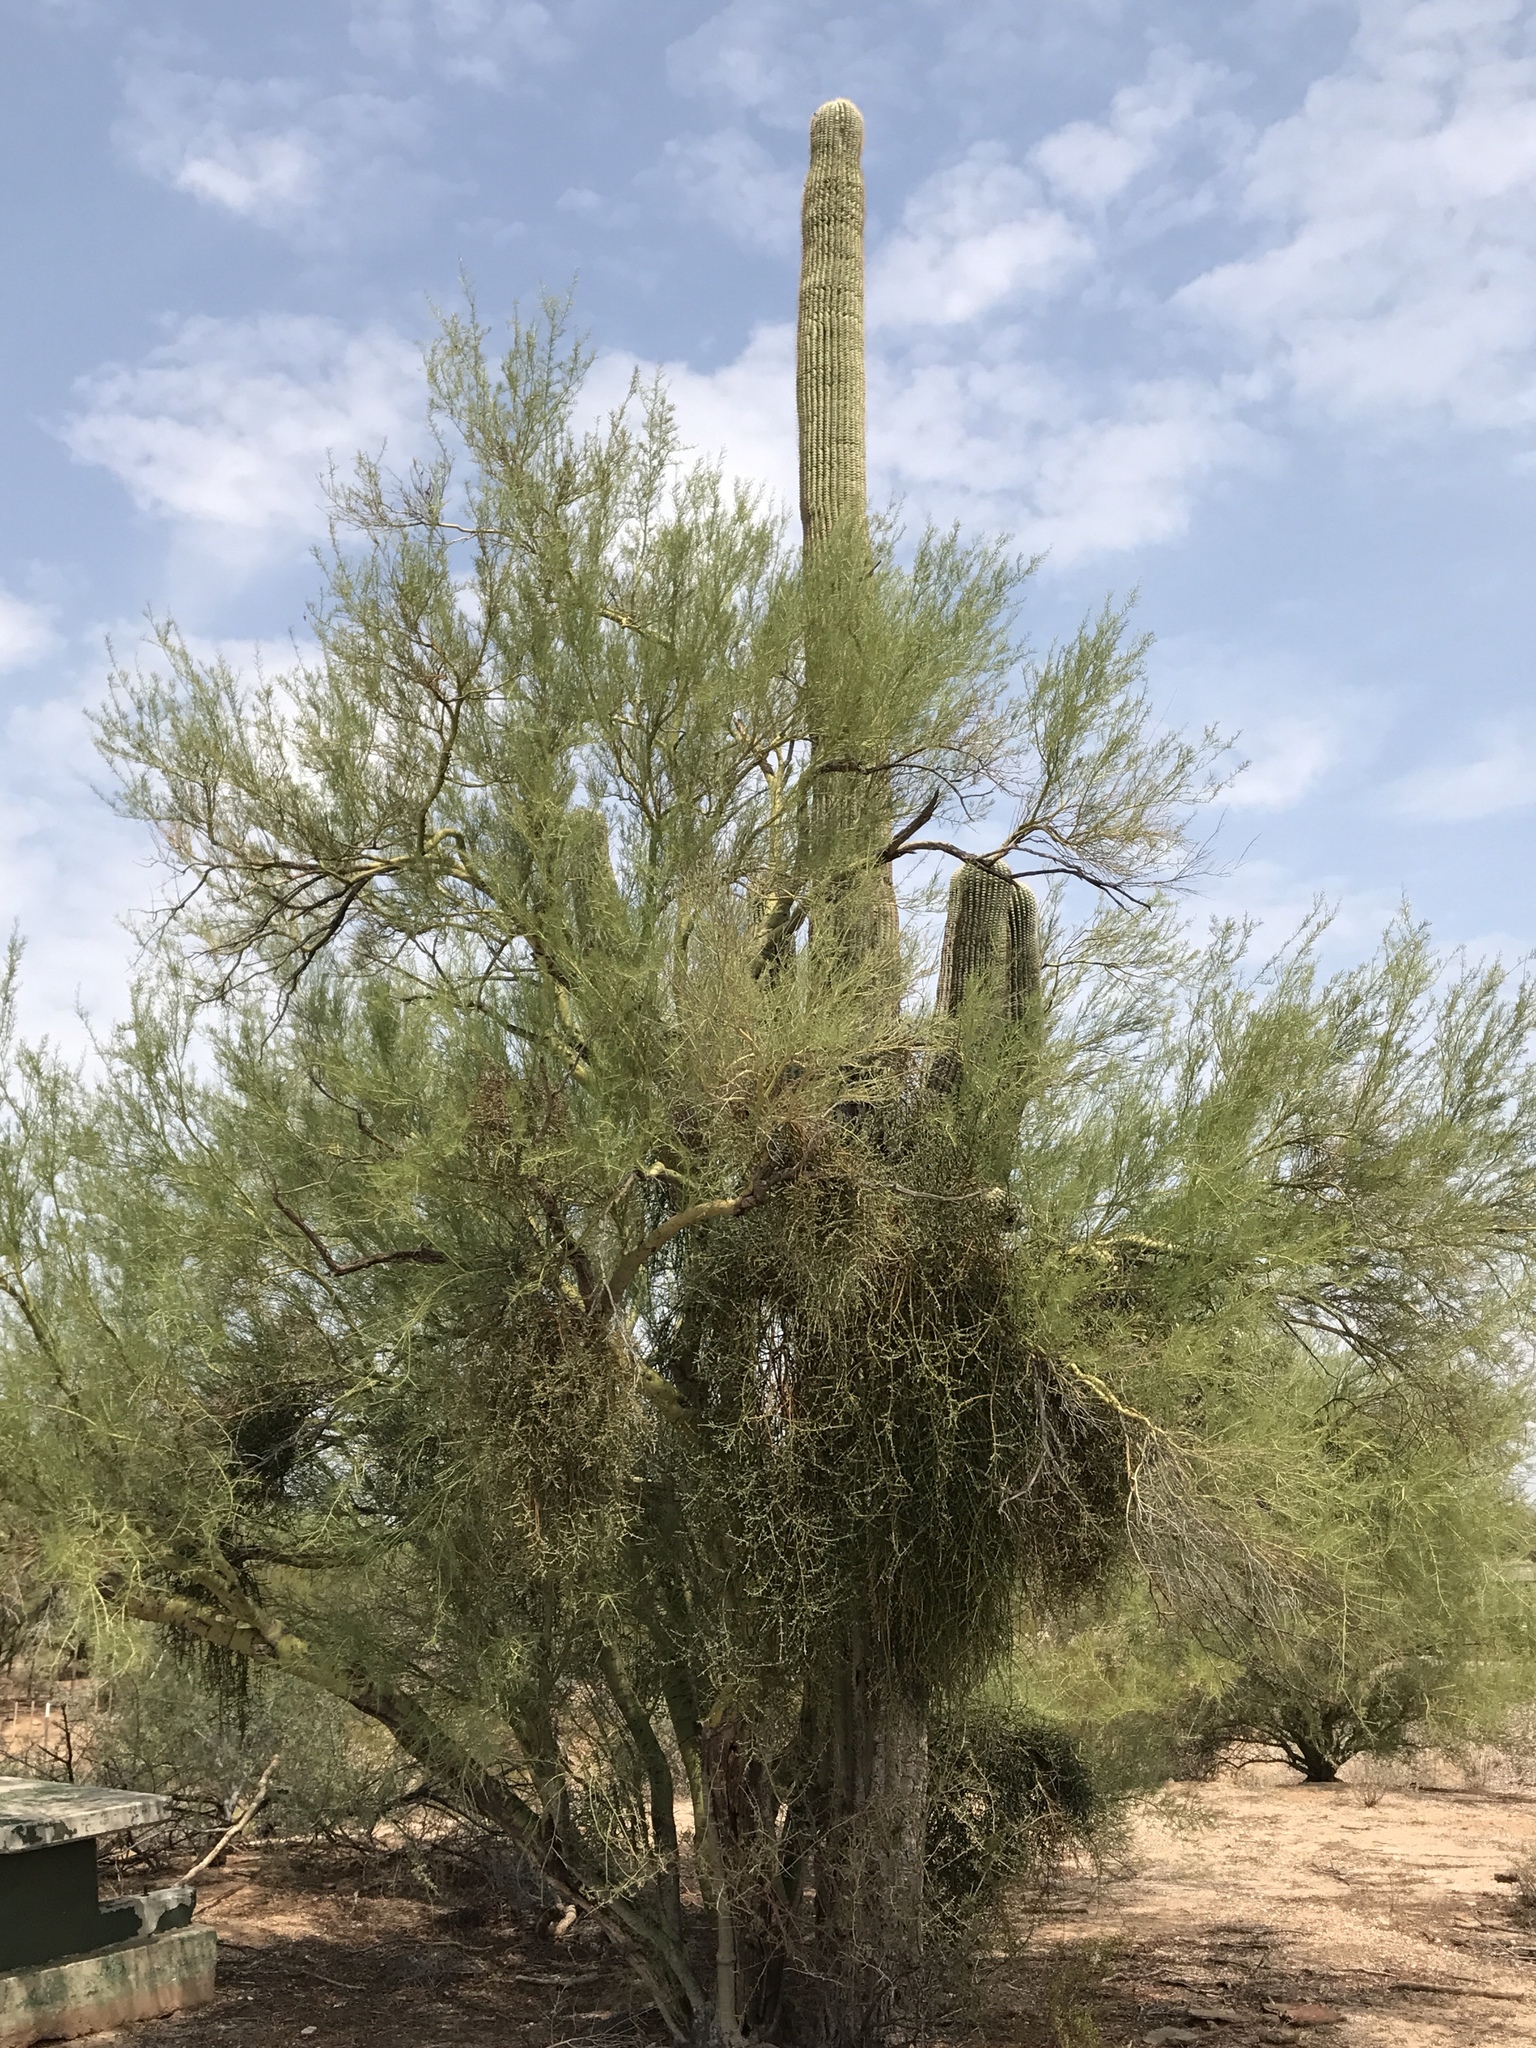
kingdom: Plantae
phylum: Tracheophyta
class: Magnoliopsida
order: Caryophyllales
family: Cactaceae
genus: Carnegiea
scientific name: Carnegiea gigantea
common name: Saguaro
